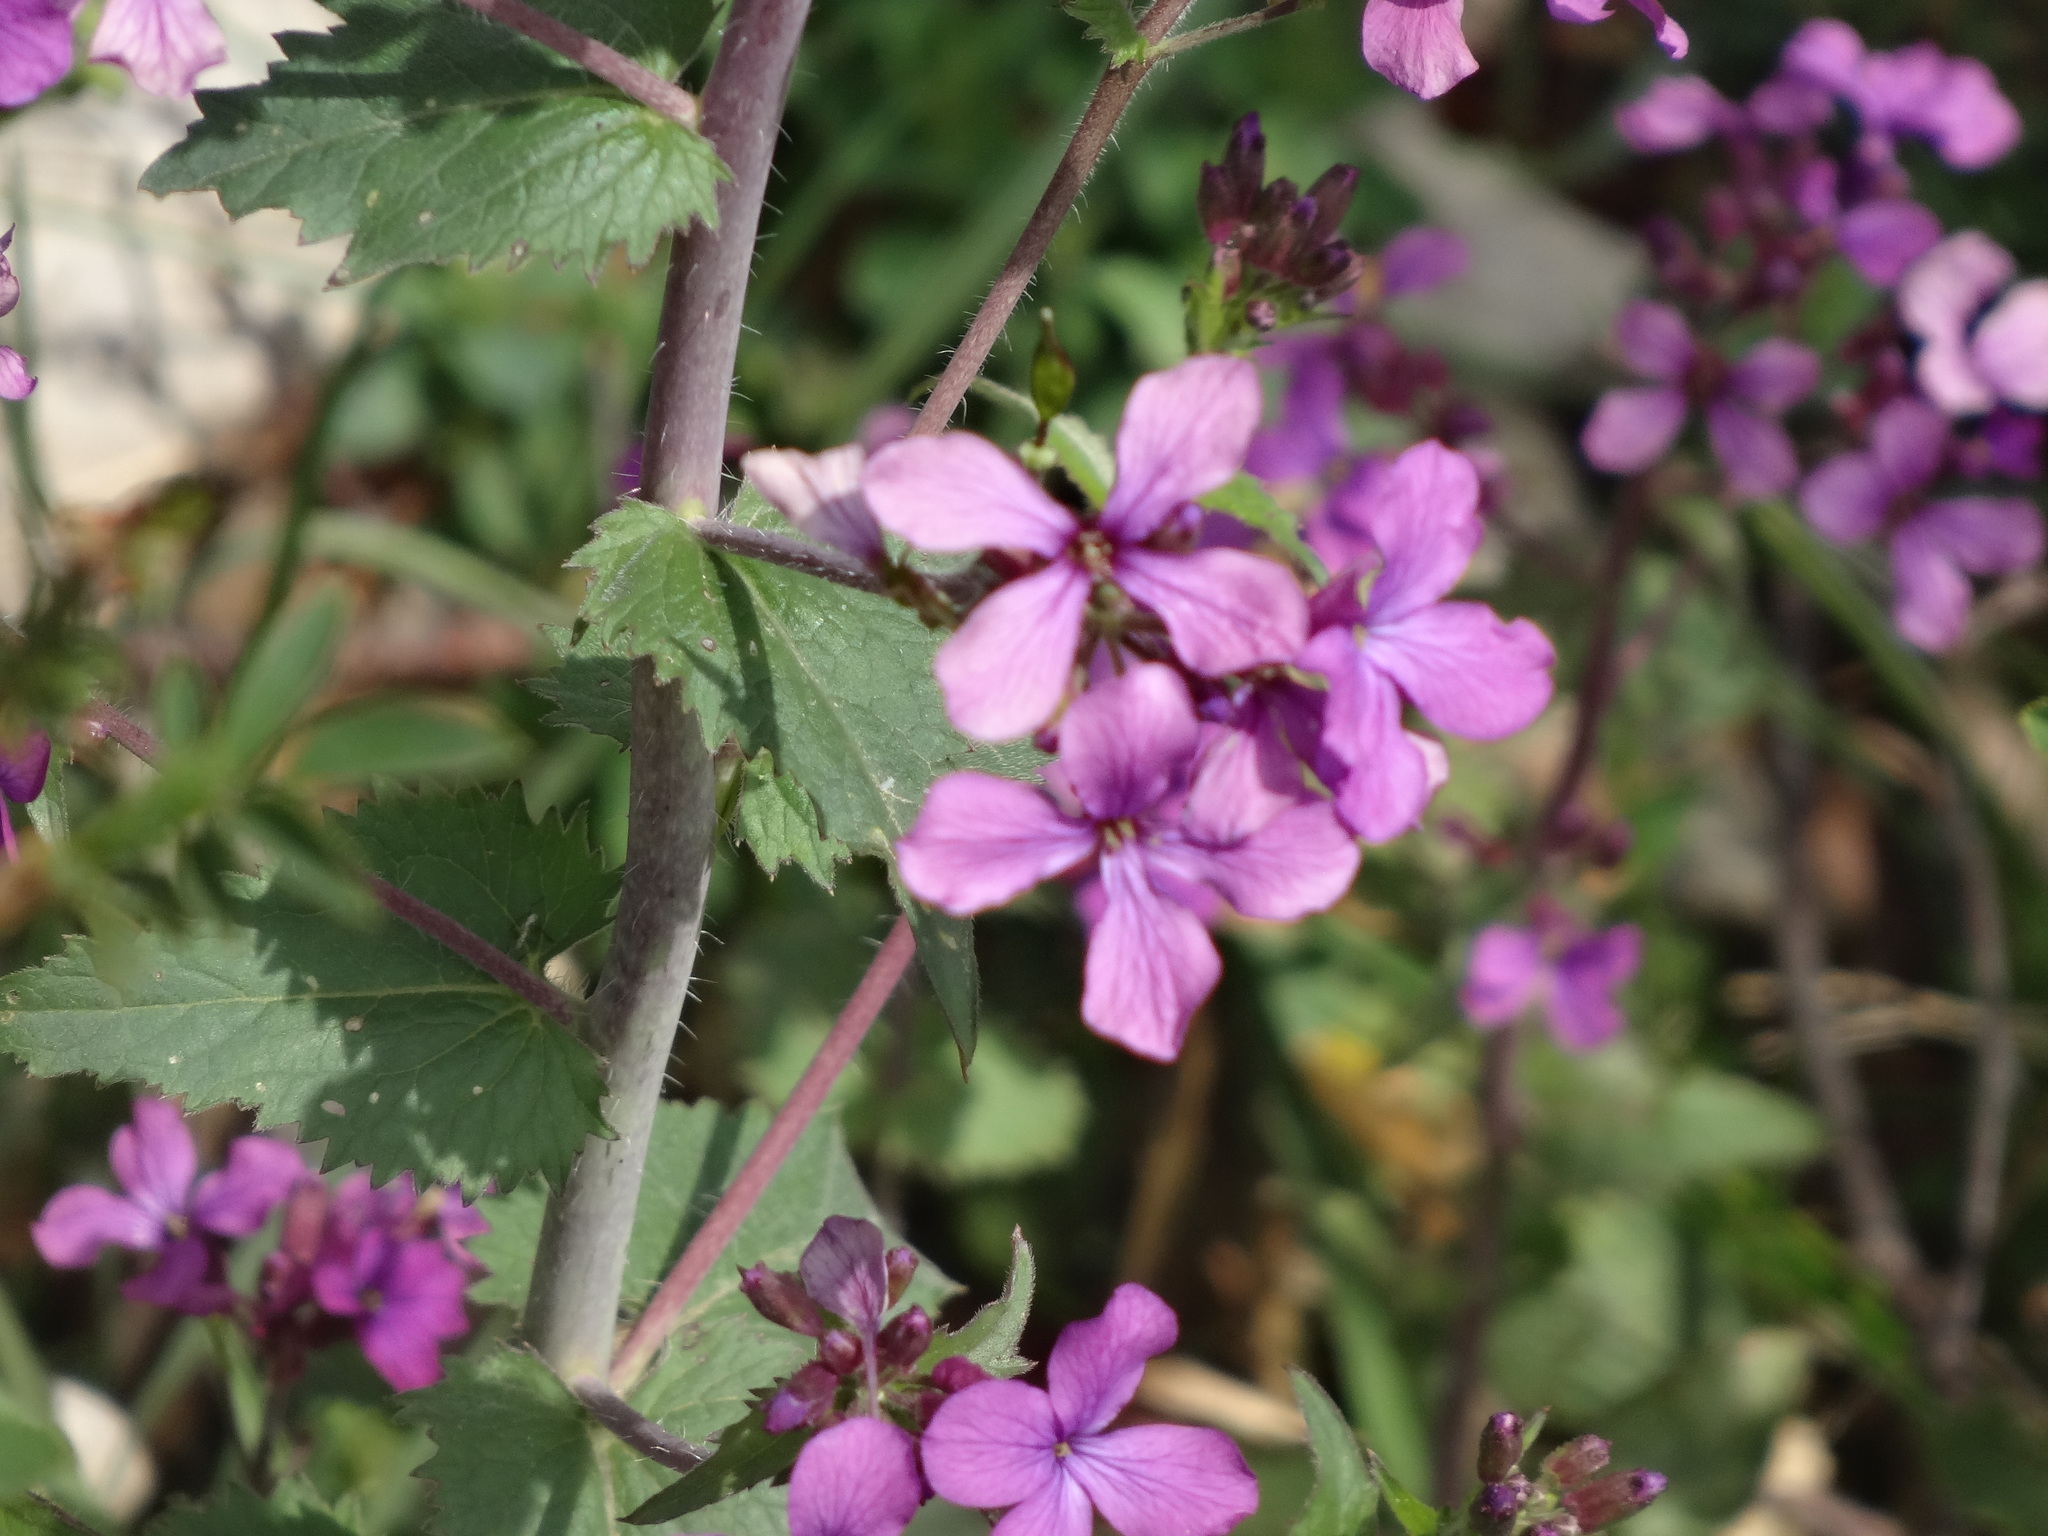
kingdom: Plantae
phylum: Tracheophyta
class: Magnoliopsida
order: Brassicales
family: Brassicaceae
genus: Lunaria
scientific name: Lunaria annua
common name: Honesty
